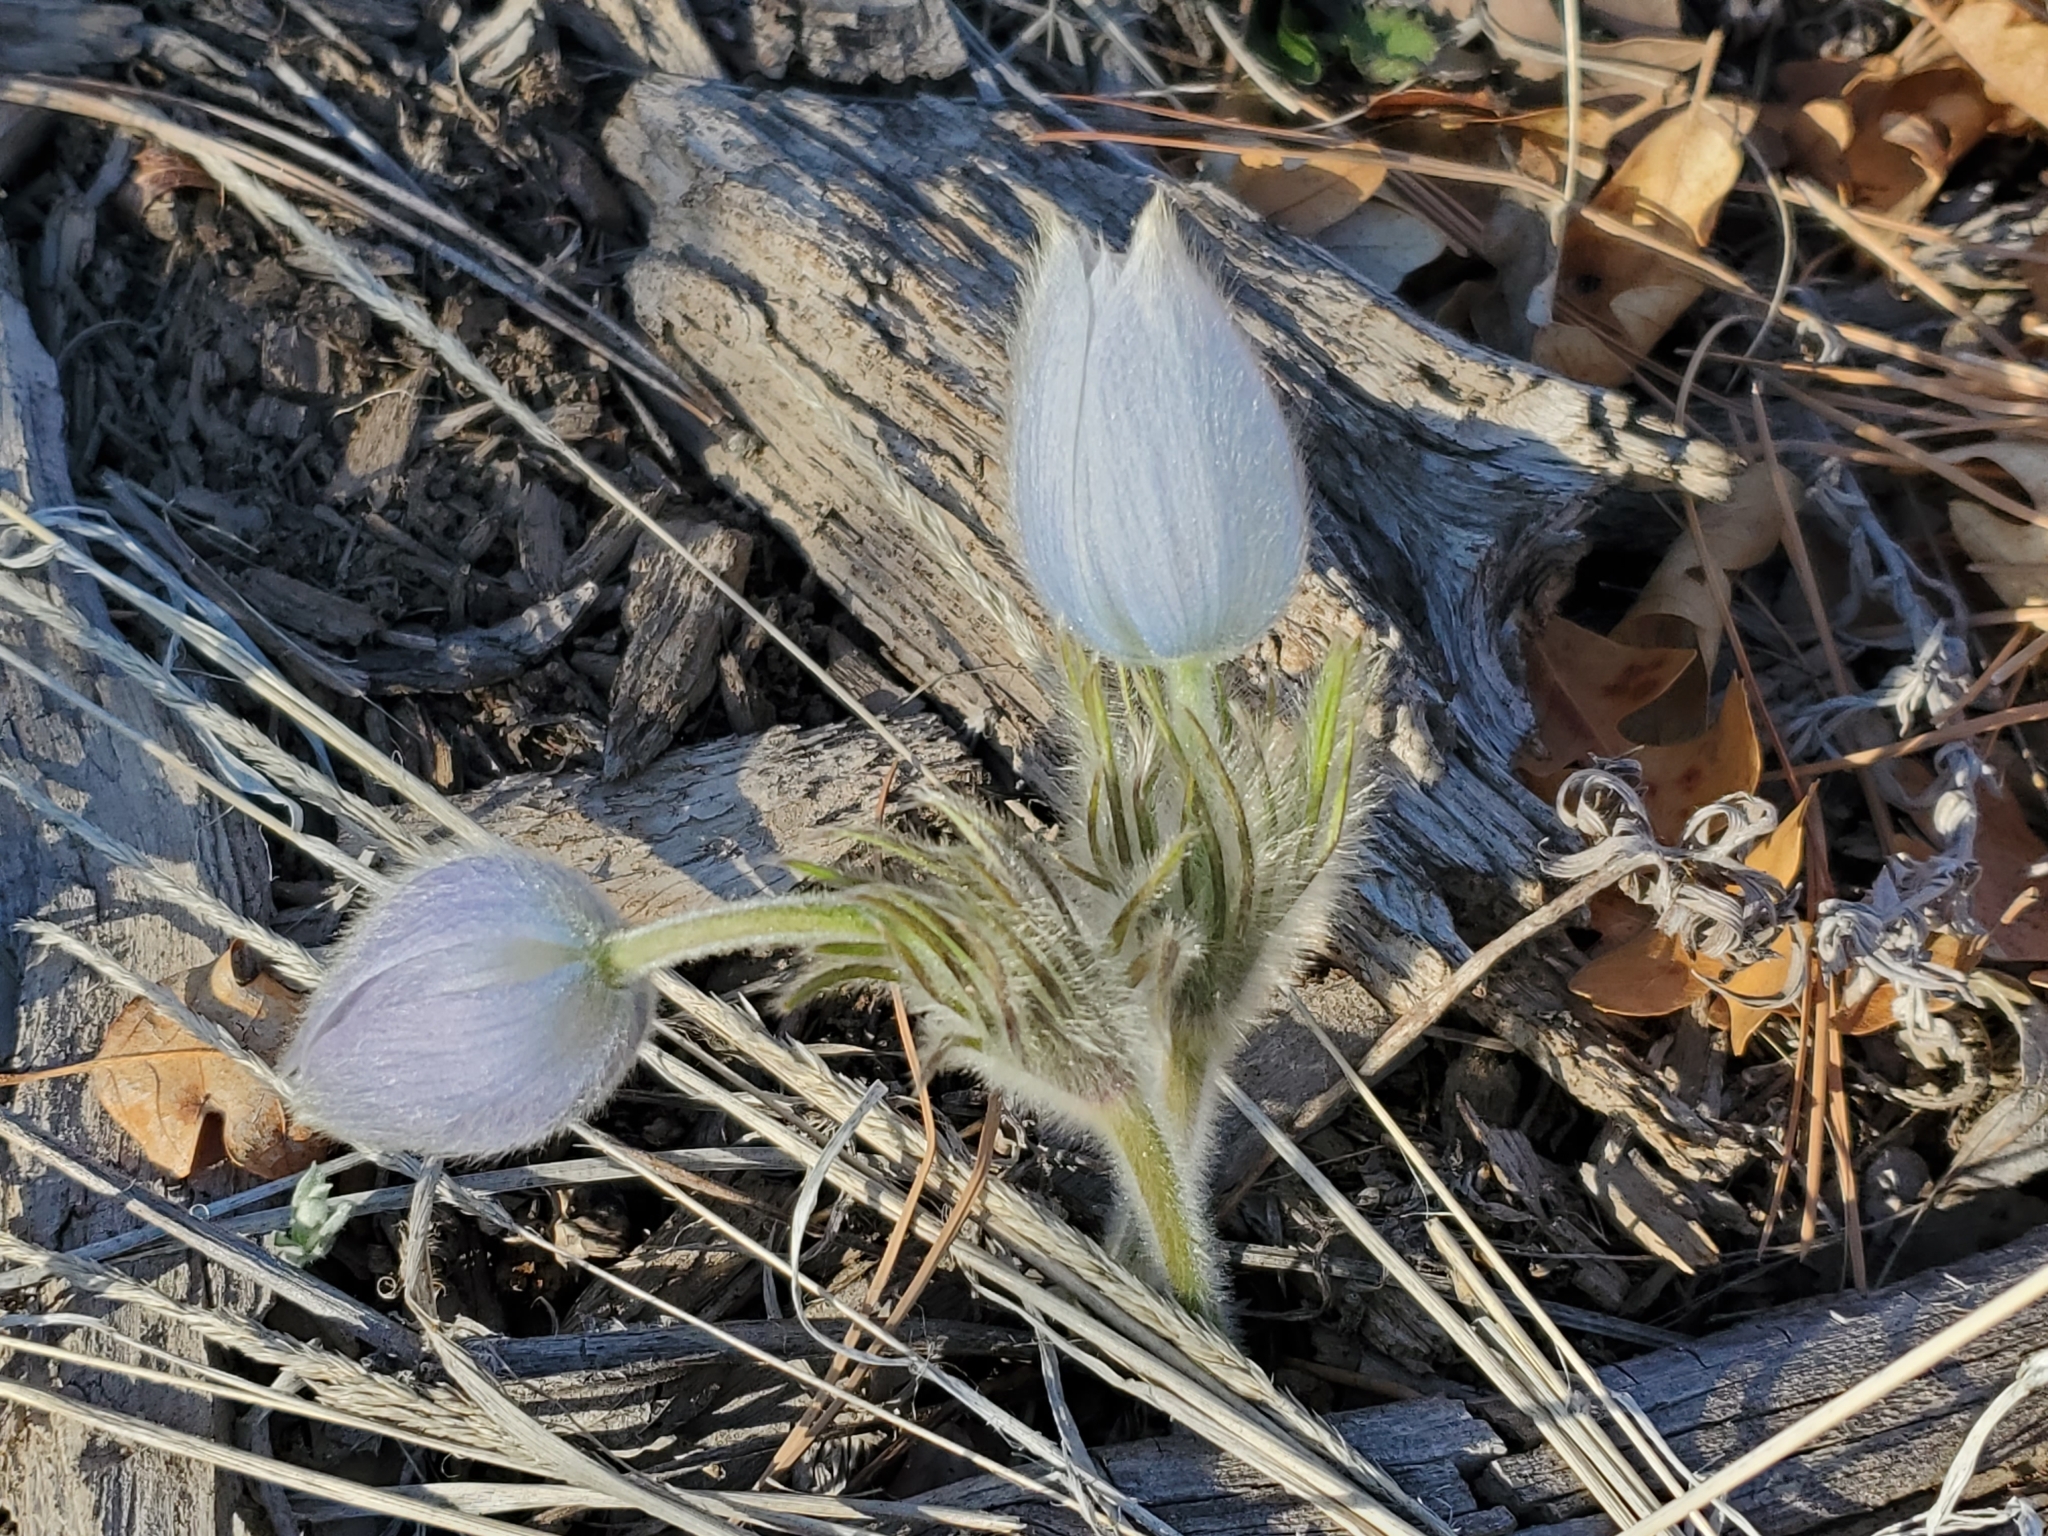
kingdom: Plantae
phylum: Tracheophyta
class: Magnoliopsida
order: Ranunculales
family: Ranunculaceae
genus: Pulsatilla
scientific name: Pulsatilla nuttalliana
